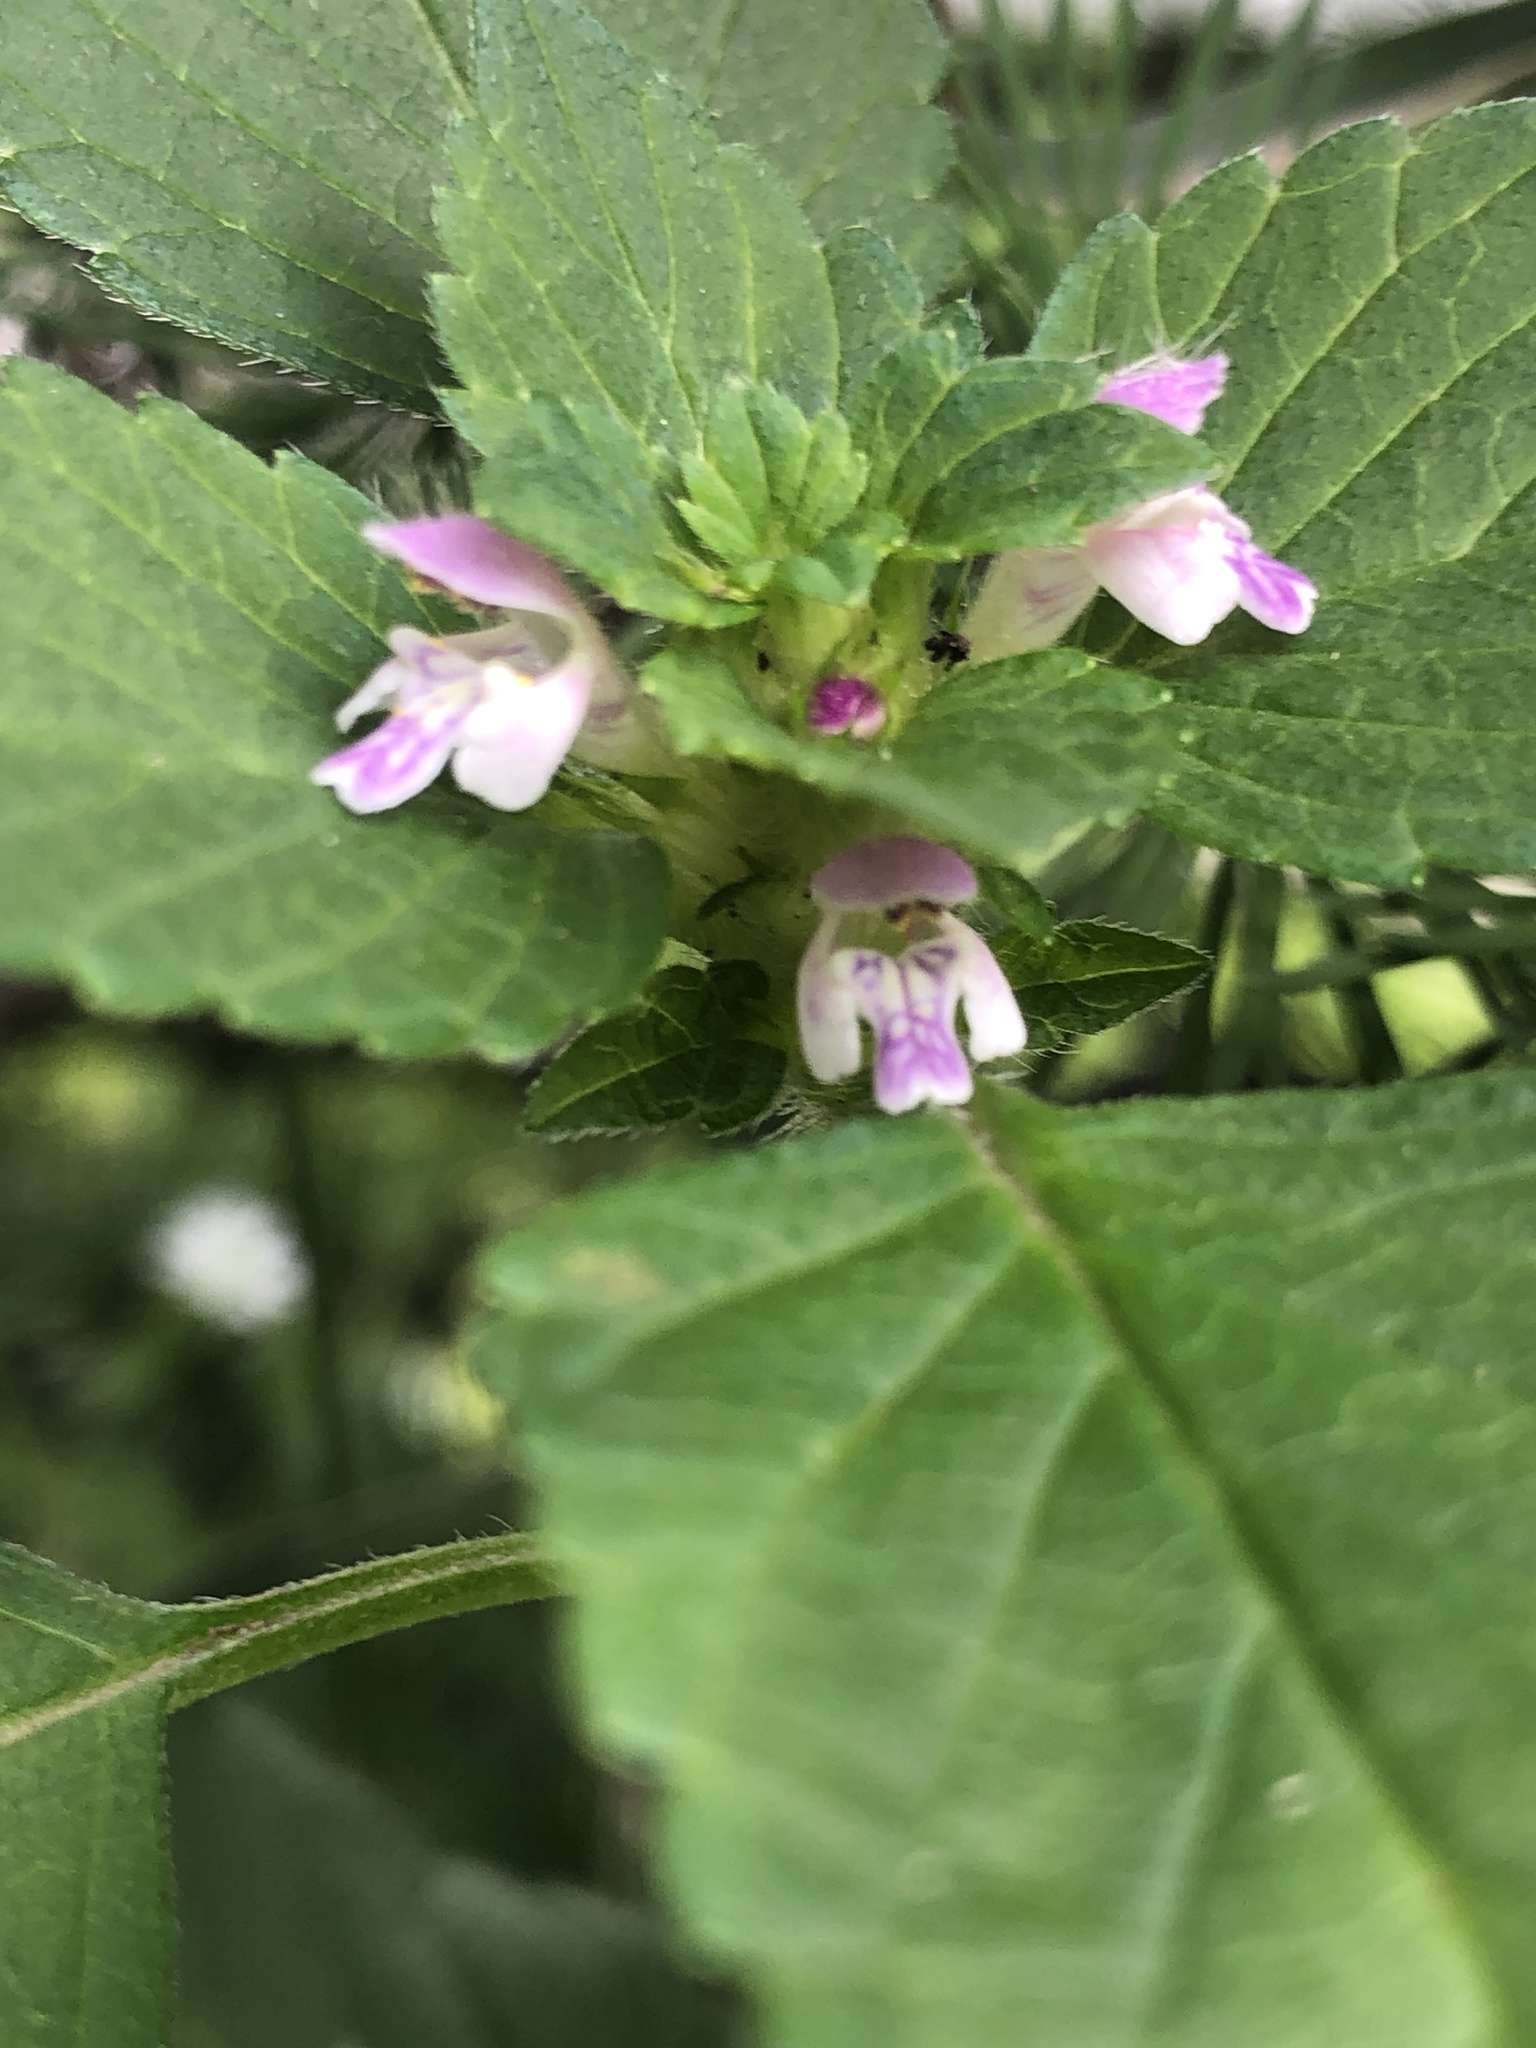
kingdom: Plantae
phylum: Tracheophyta
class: Magnoliopsida
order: Lamiales
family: Lamiaceae
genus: Galeopsis
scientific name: Galeopsis bifida
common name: Bifid hemp-nettle
